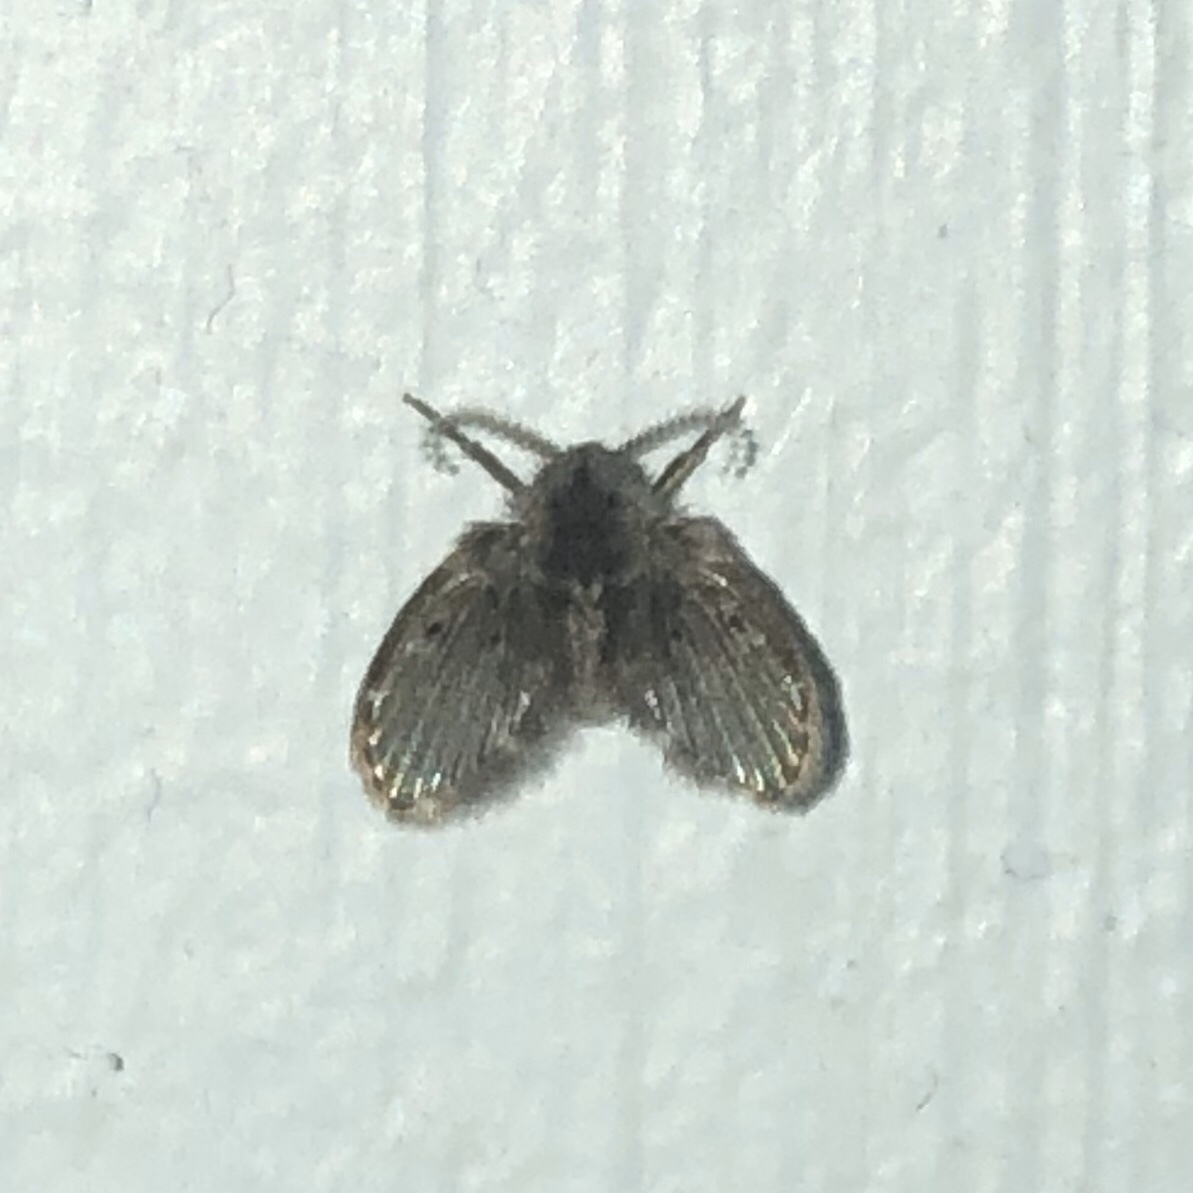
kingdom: Animalia
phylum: Arthropoda
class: Insecta
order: Diptera
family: Psychodidae
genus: Clogmia
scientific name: Clogmia albipunctatus
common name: White-spotted moth fly
